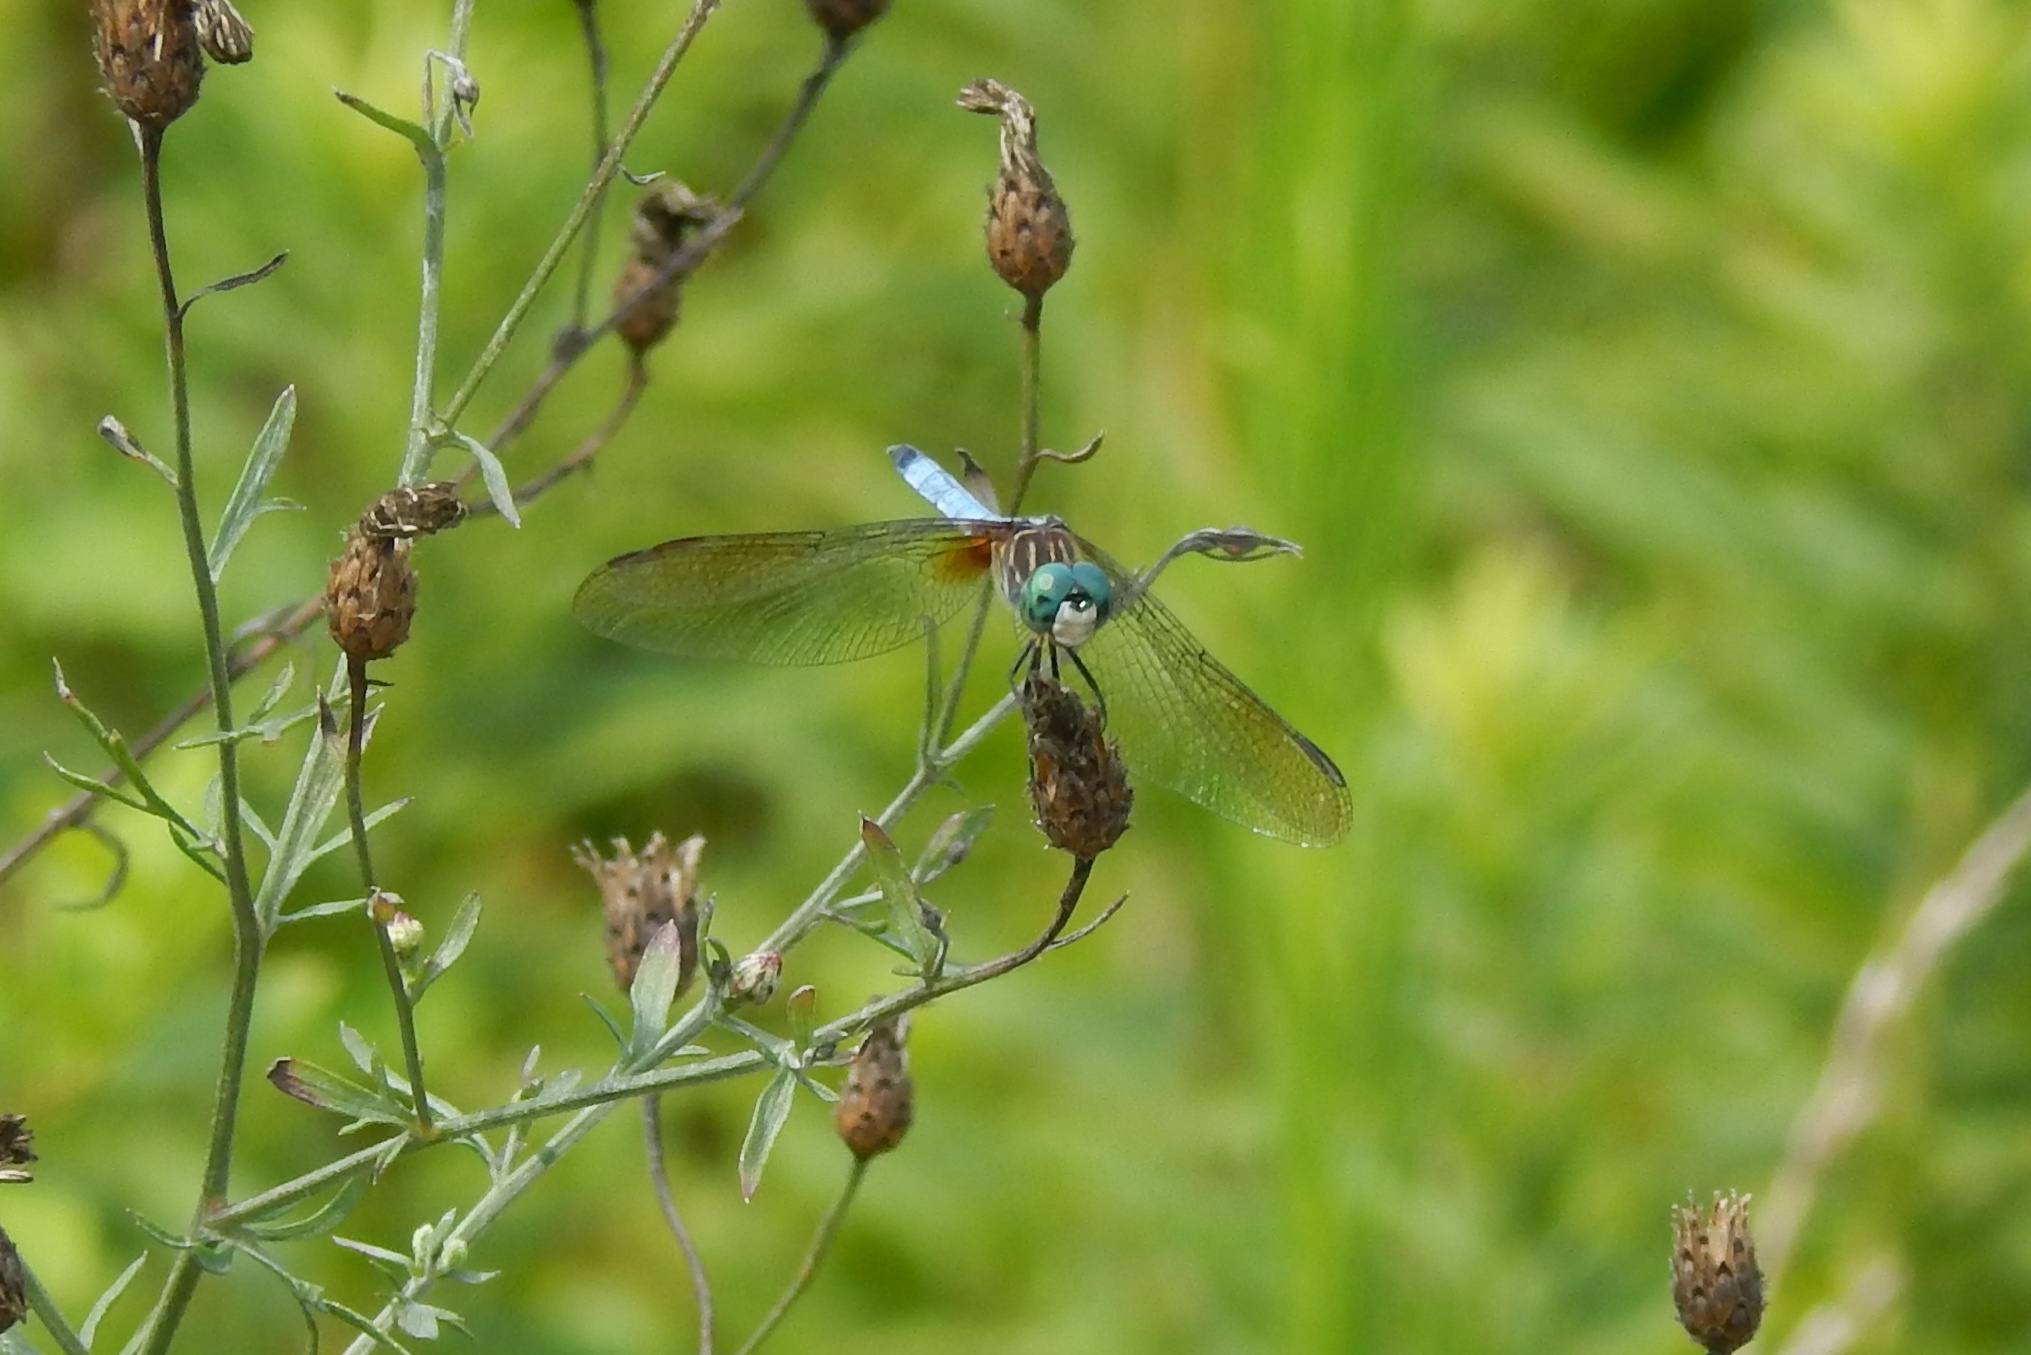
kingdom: Animalia
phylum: Arthropoda
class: Insecta
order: Odonata
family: Libellulidae
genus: Pachydiplax
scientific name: Pachydiplax longipennis
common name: Blue dasher
